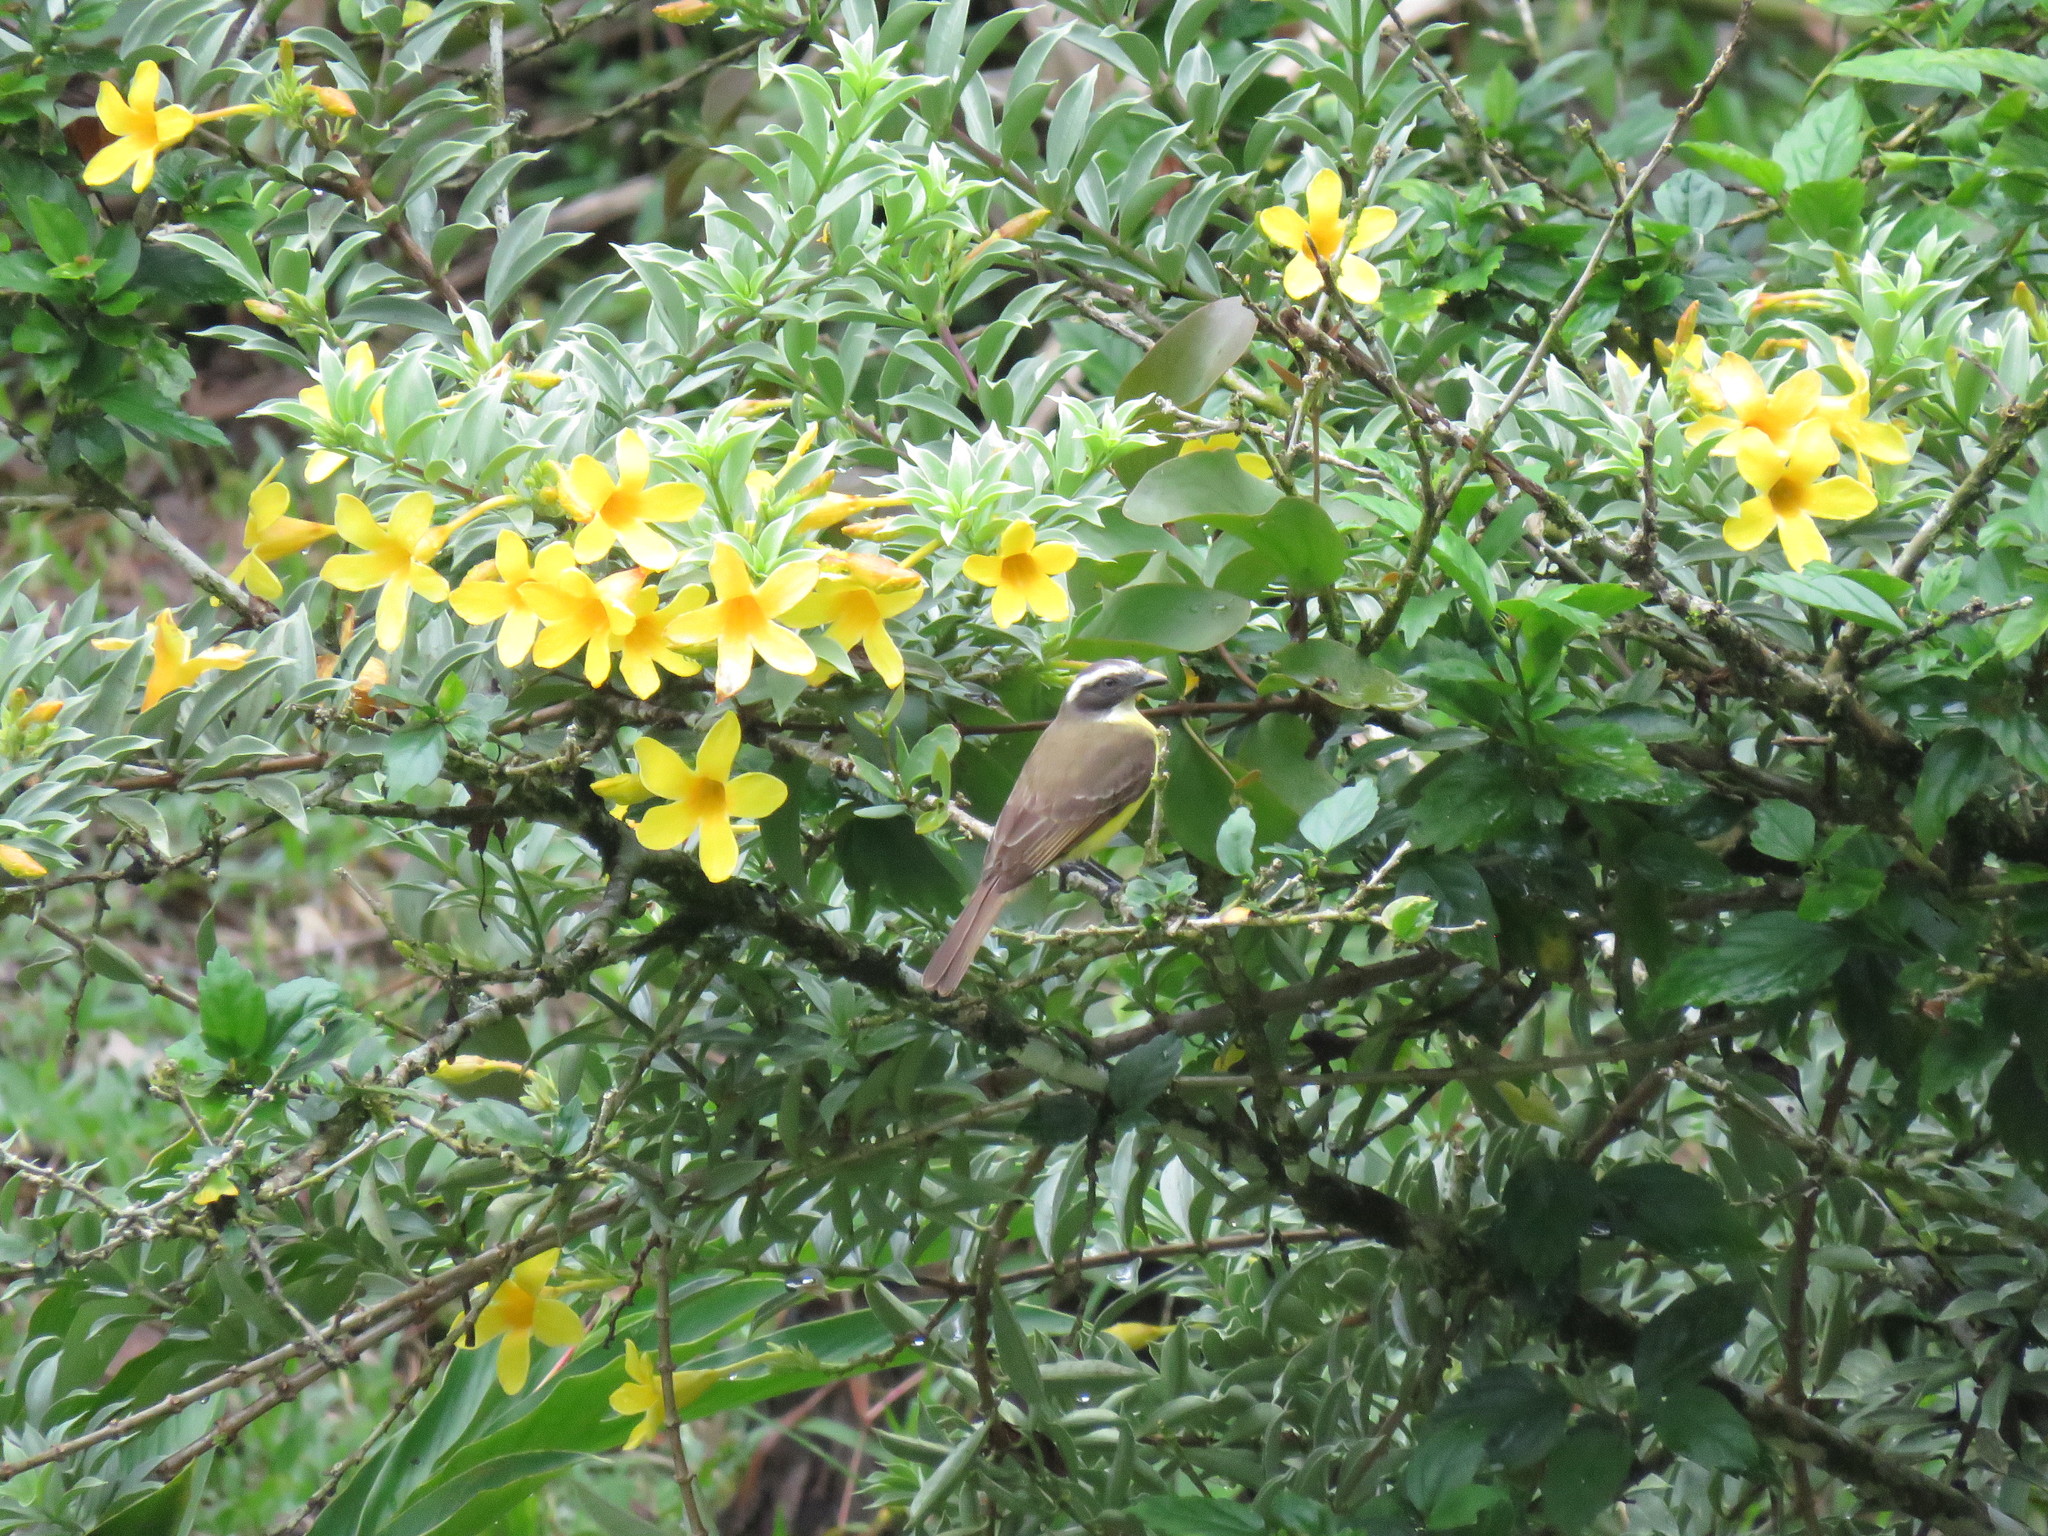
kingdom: Animalia
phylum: Chordata
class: Aves
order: Passeriformes
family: Tyrannidae
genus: Myiozetetes
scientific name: Myiozetetes similis
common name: Social flycatcher
